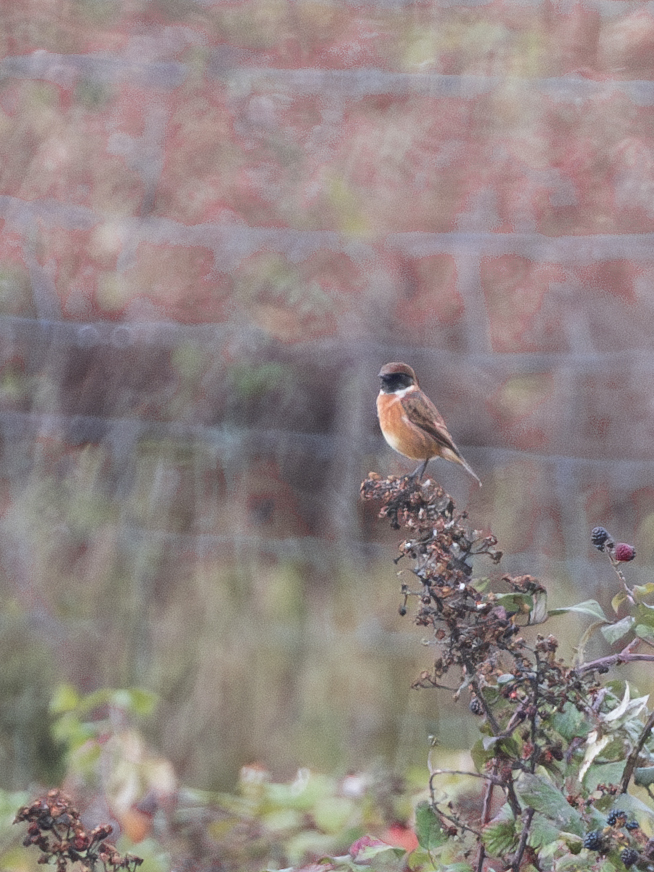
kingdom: Animalia
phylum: Chordata
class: Aves
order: Passeriformes
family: Muscicapidae
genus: Saxicola
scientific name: Saxicola rubicola
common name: European stonechat
